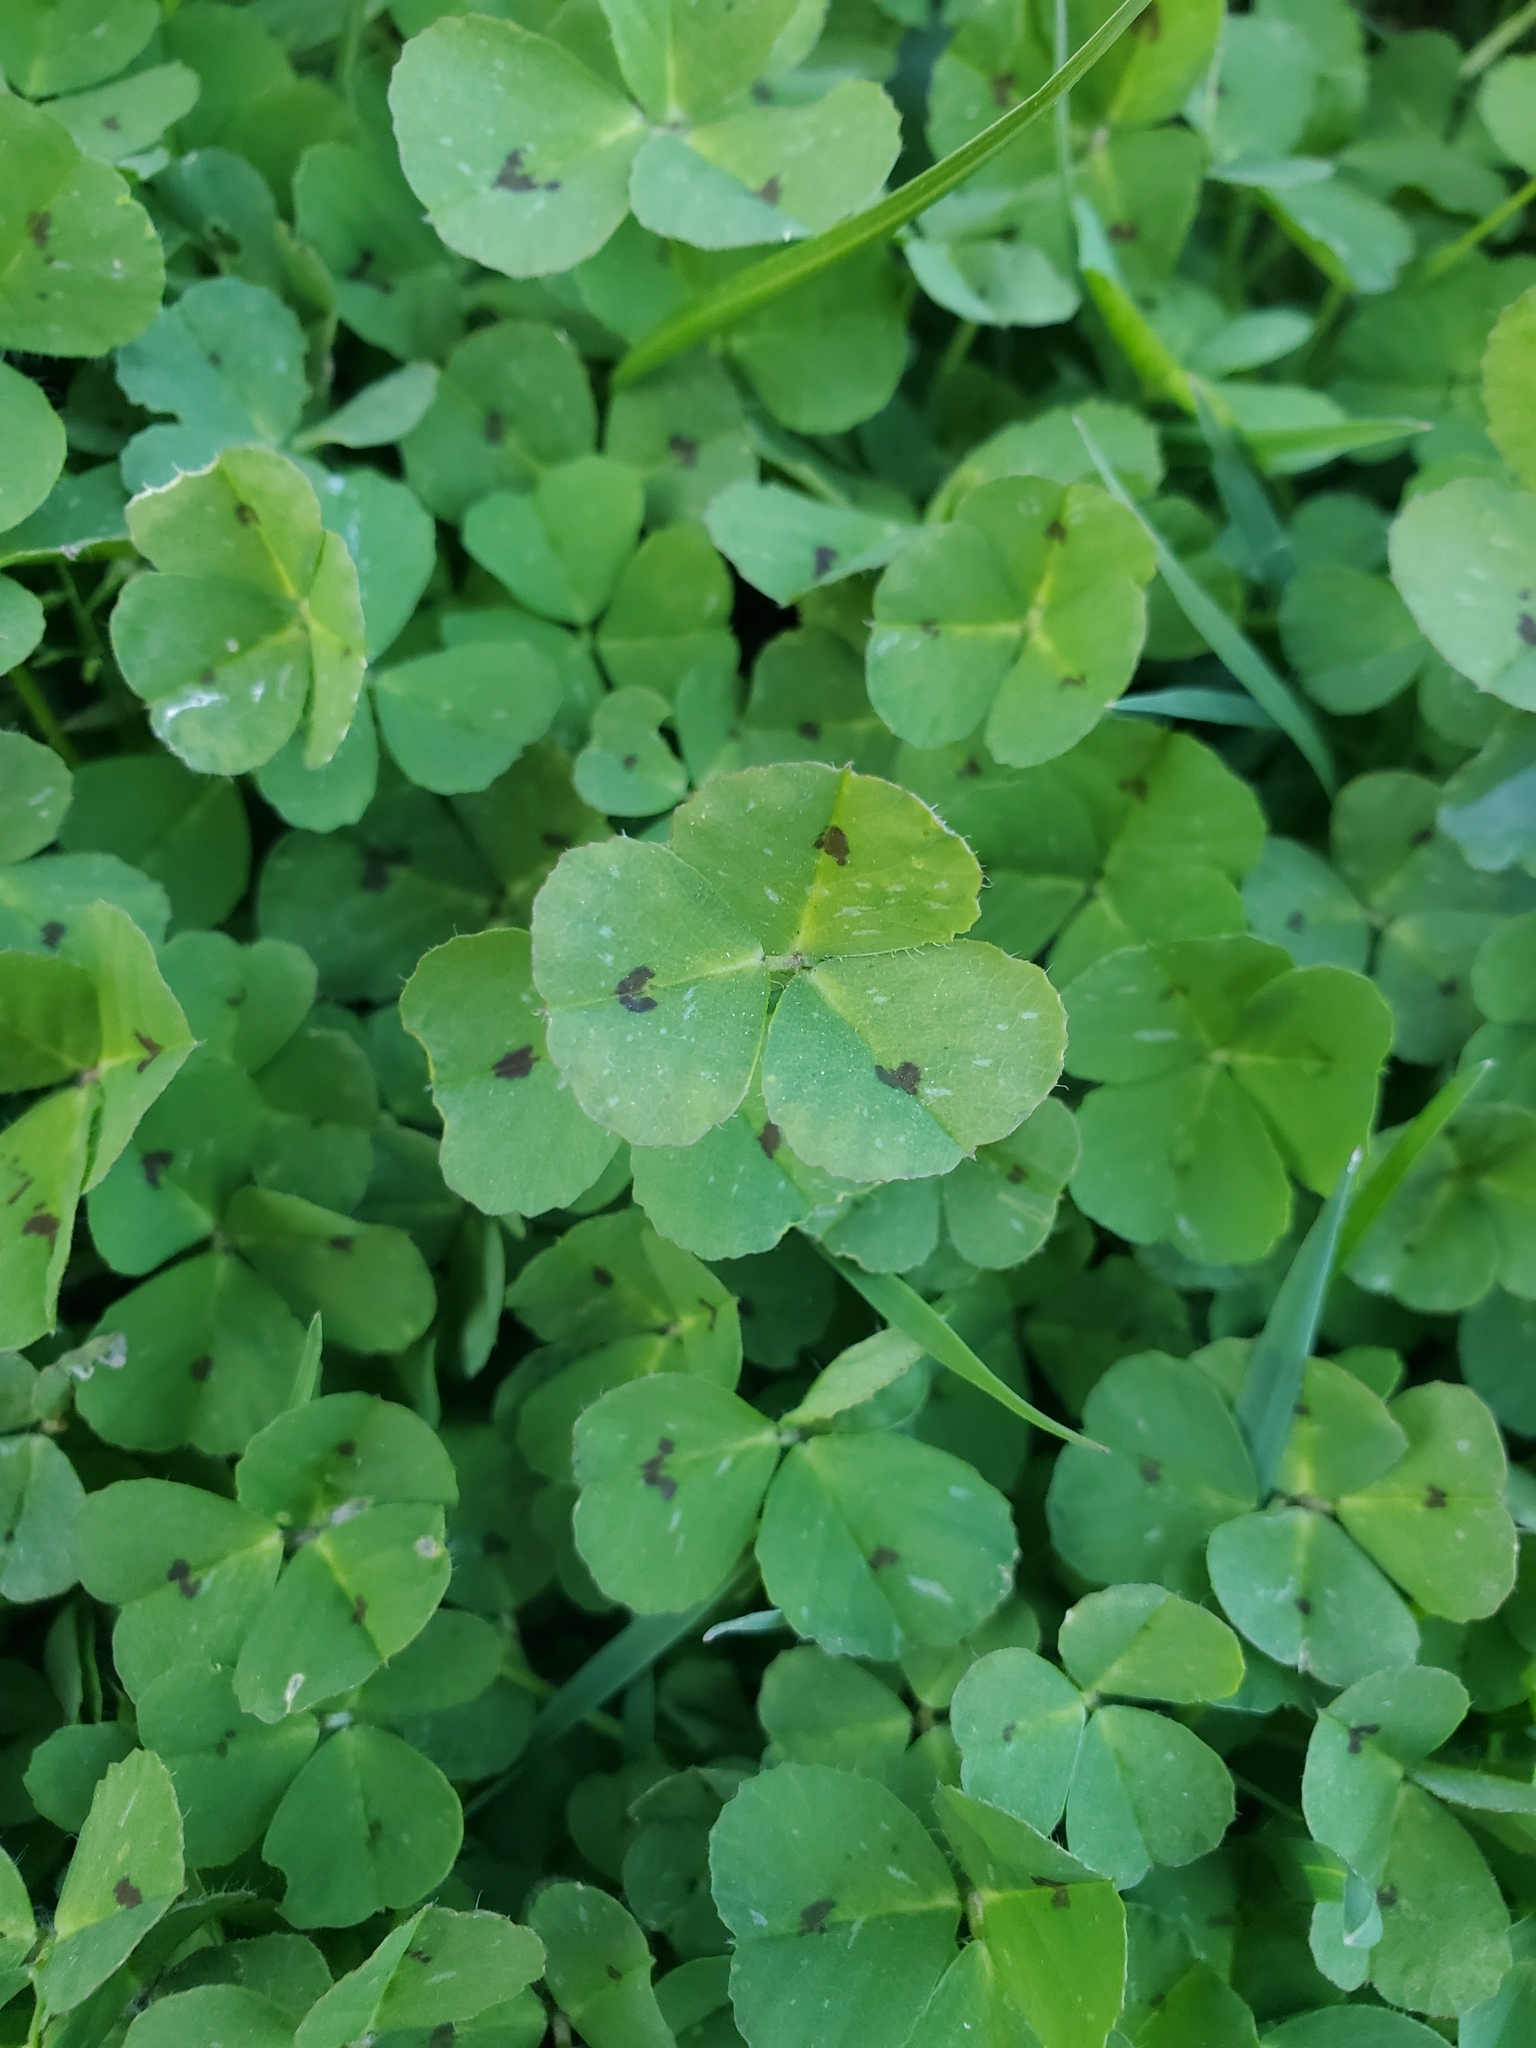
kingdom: Plantae
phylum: Tracheophyta
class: Magnoliopsida
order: Fabales
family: Fabaceae
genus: Medicago
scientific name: Medicago arabica
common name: Spotted medick
